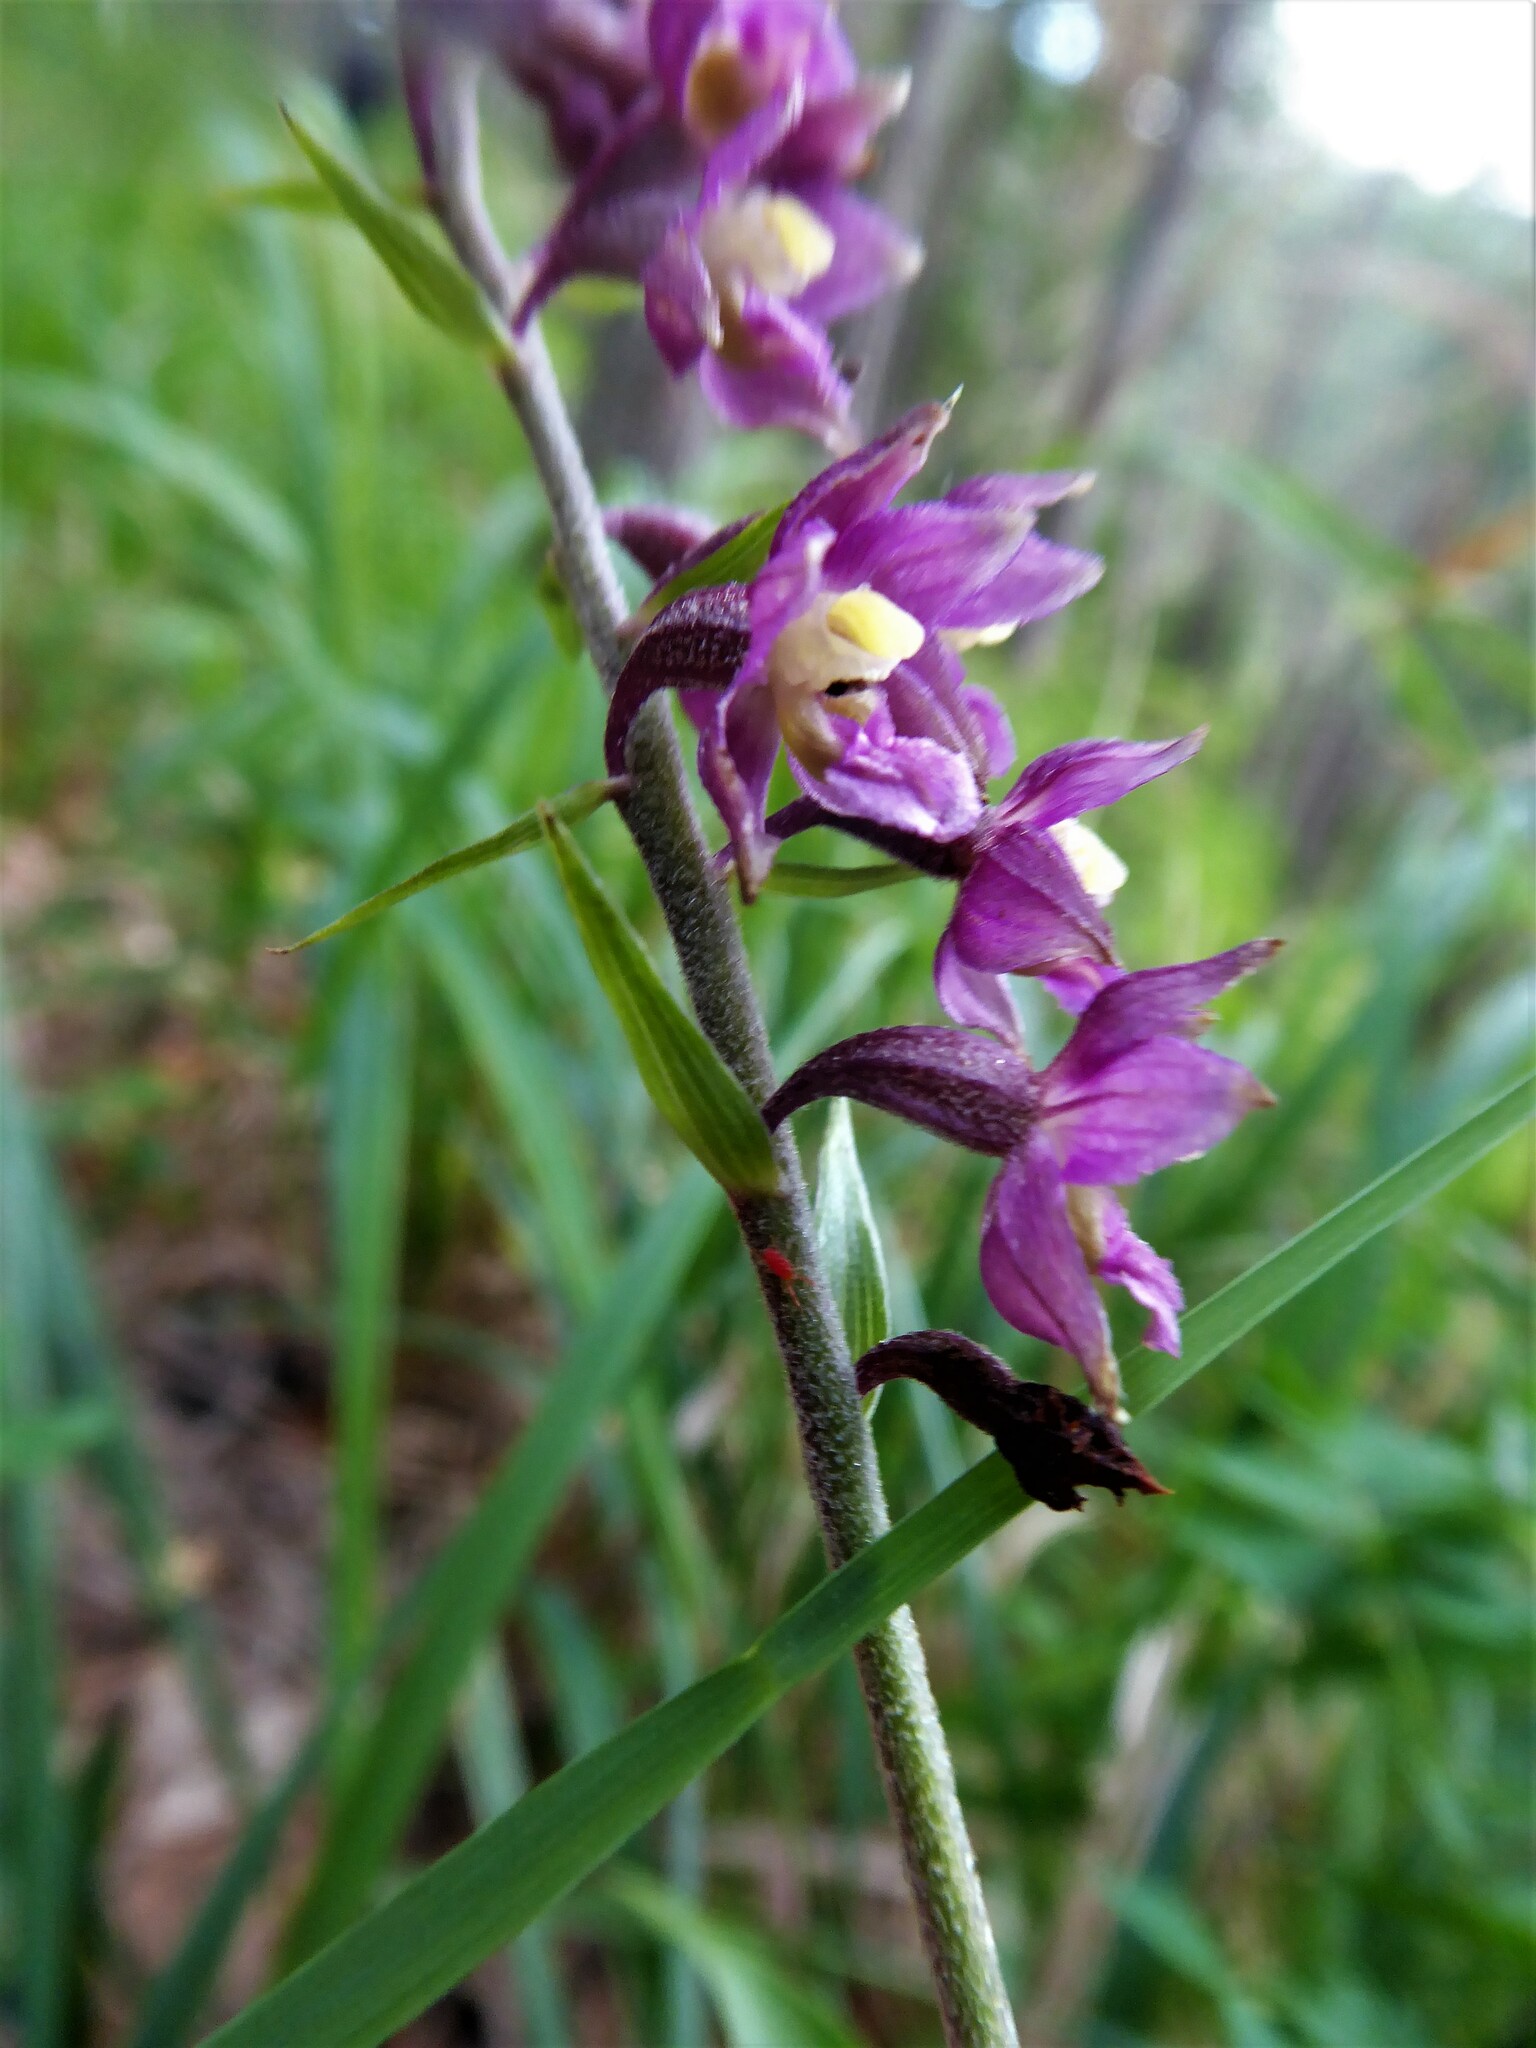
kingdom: Plantae
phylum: Tracheophyta
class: Liliopsida
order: Asparagales
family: Orchidaceae
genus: Epipactis
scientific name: Epipactis atrorubens
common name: Dark-red helleborine
